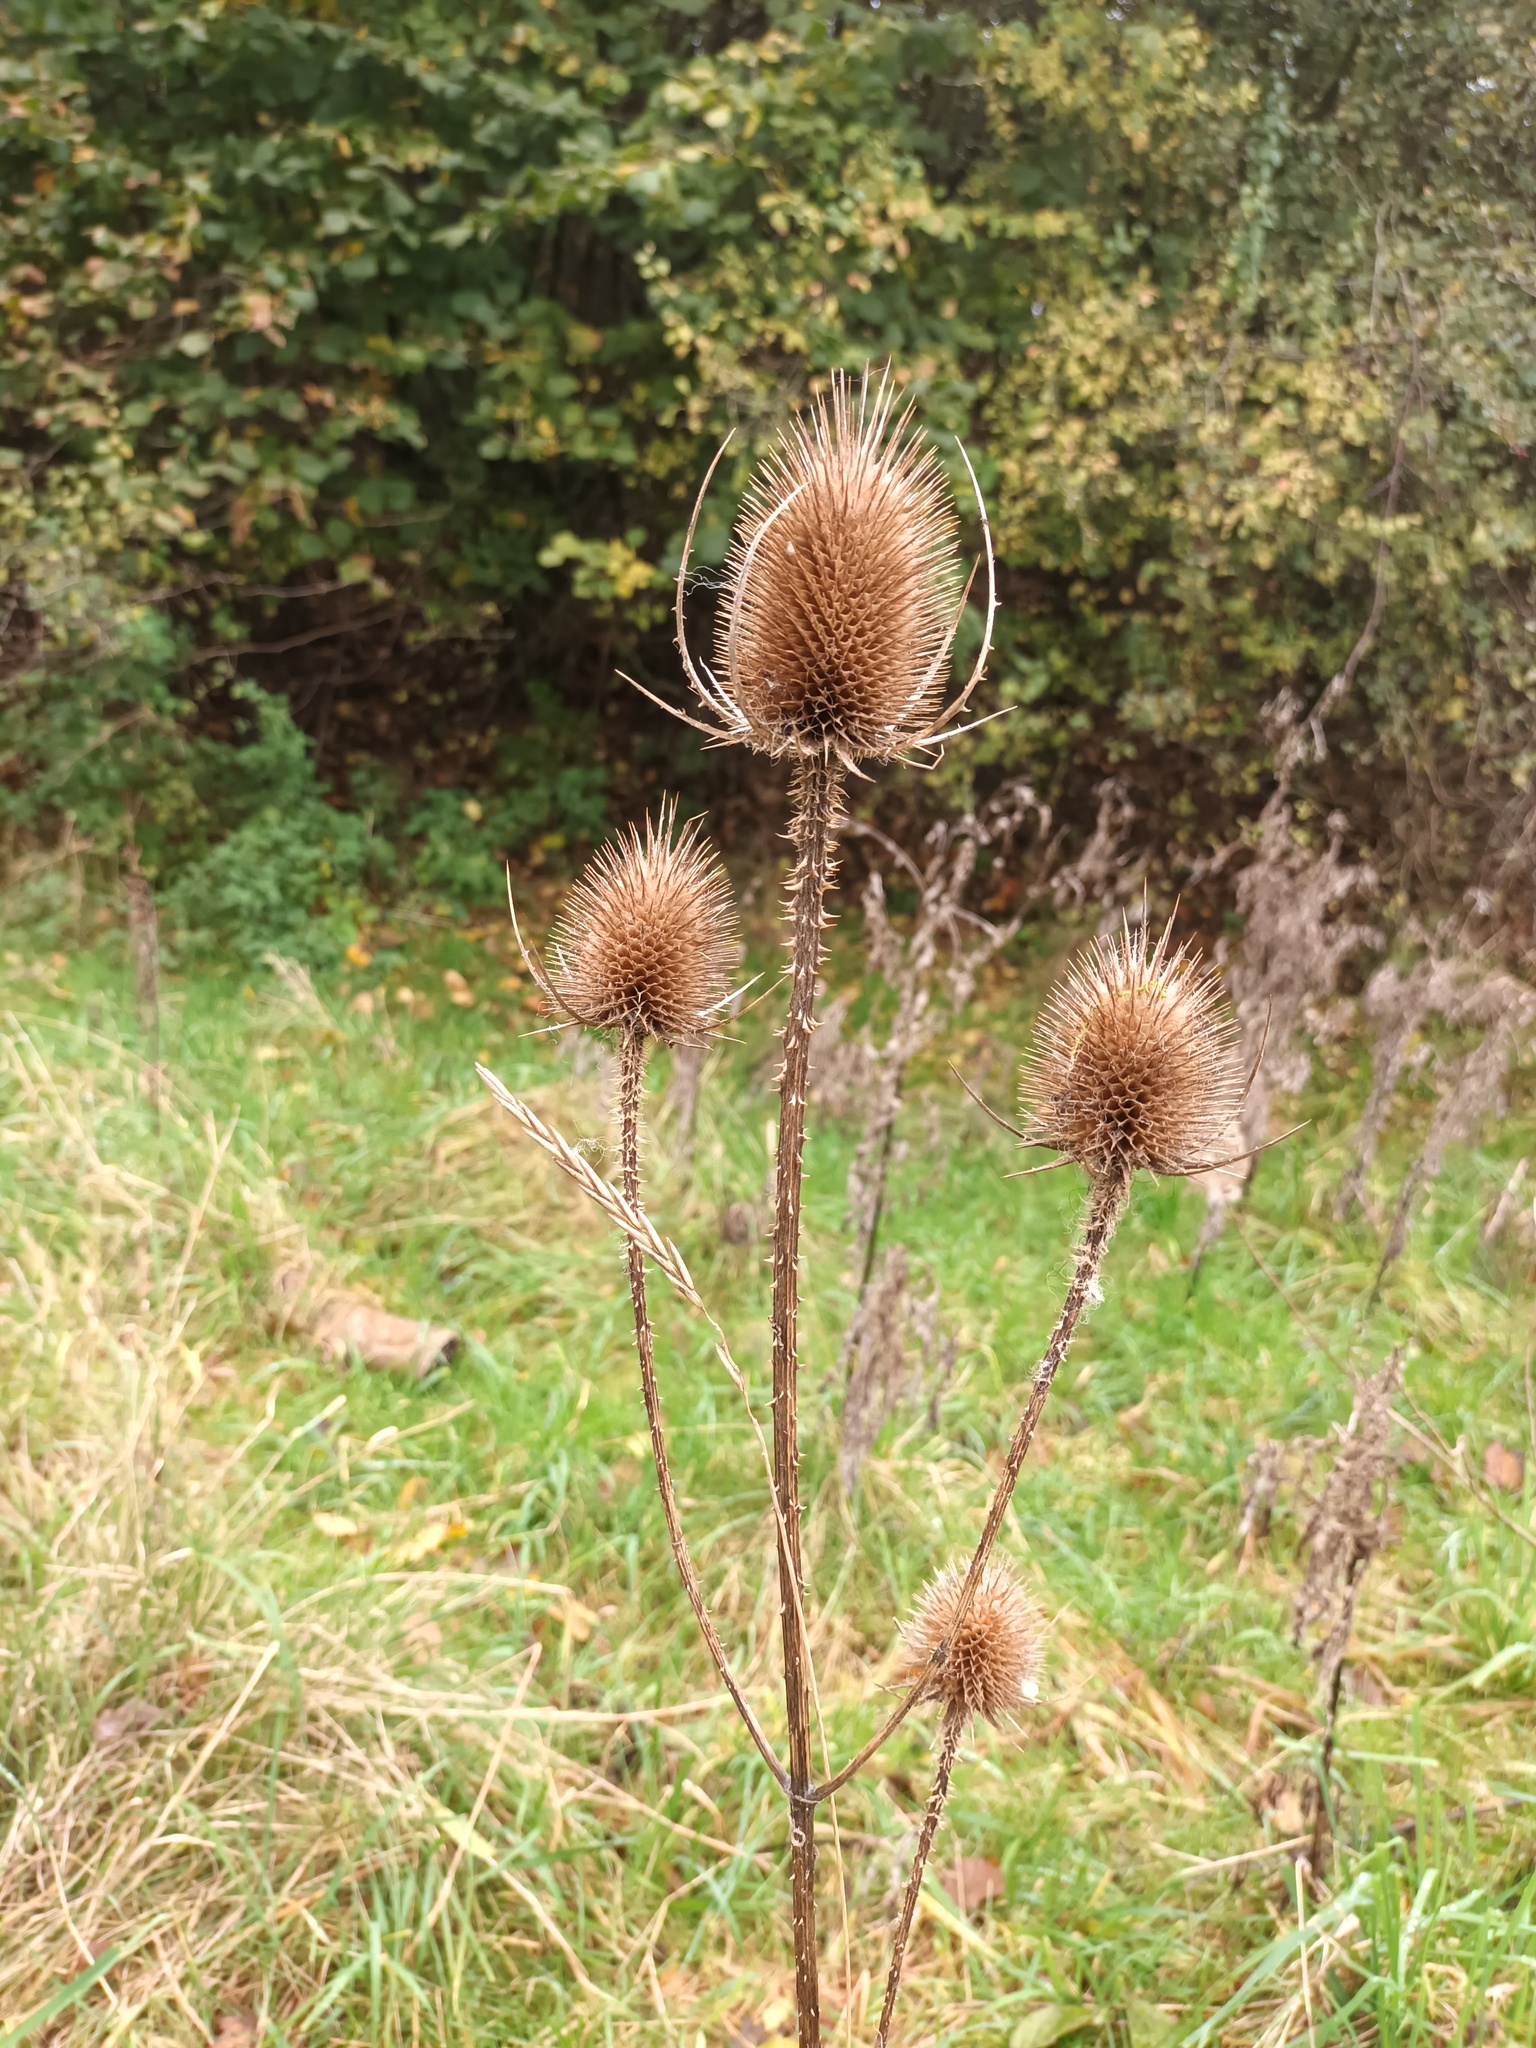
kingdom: Plantae
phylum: Tracheophyta
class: Magnoliopsida
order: Dipsacales
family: Caprifoliaceae
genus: Dipsacus
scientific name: Dipsacus fullonum
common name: Teasel
